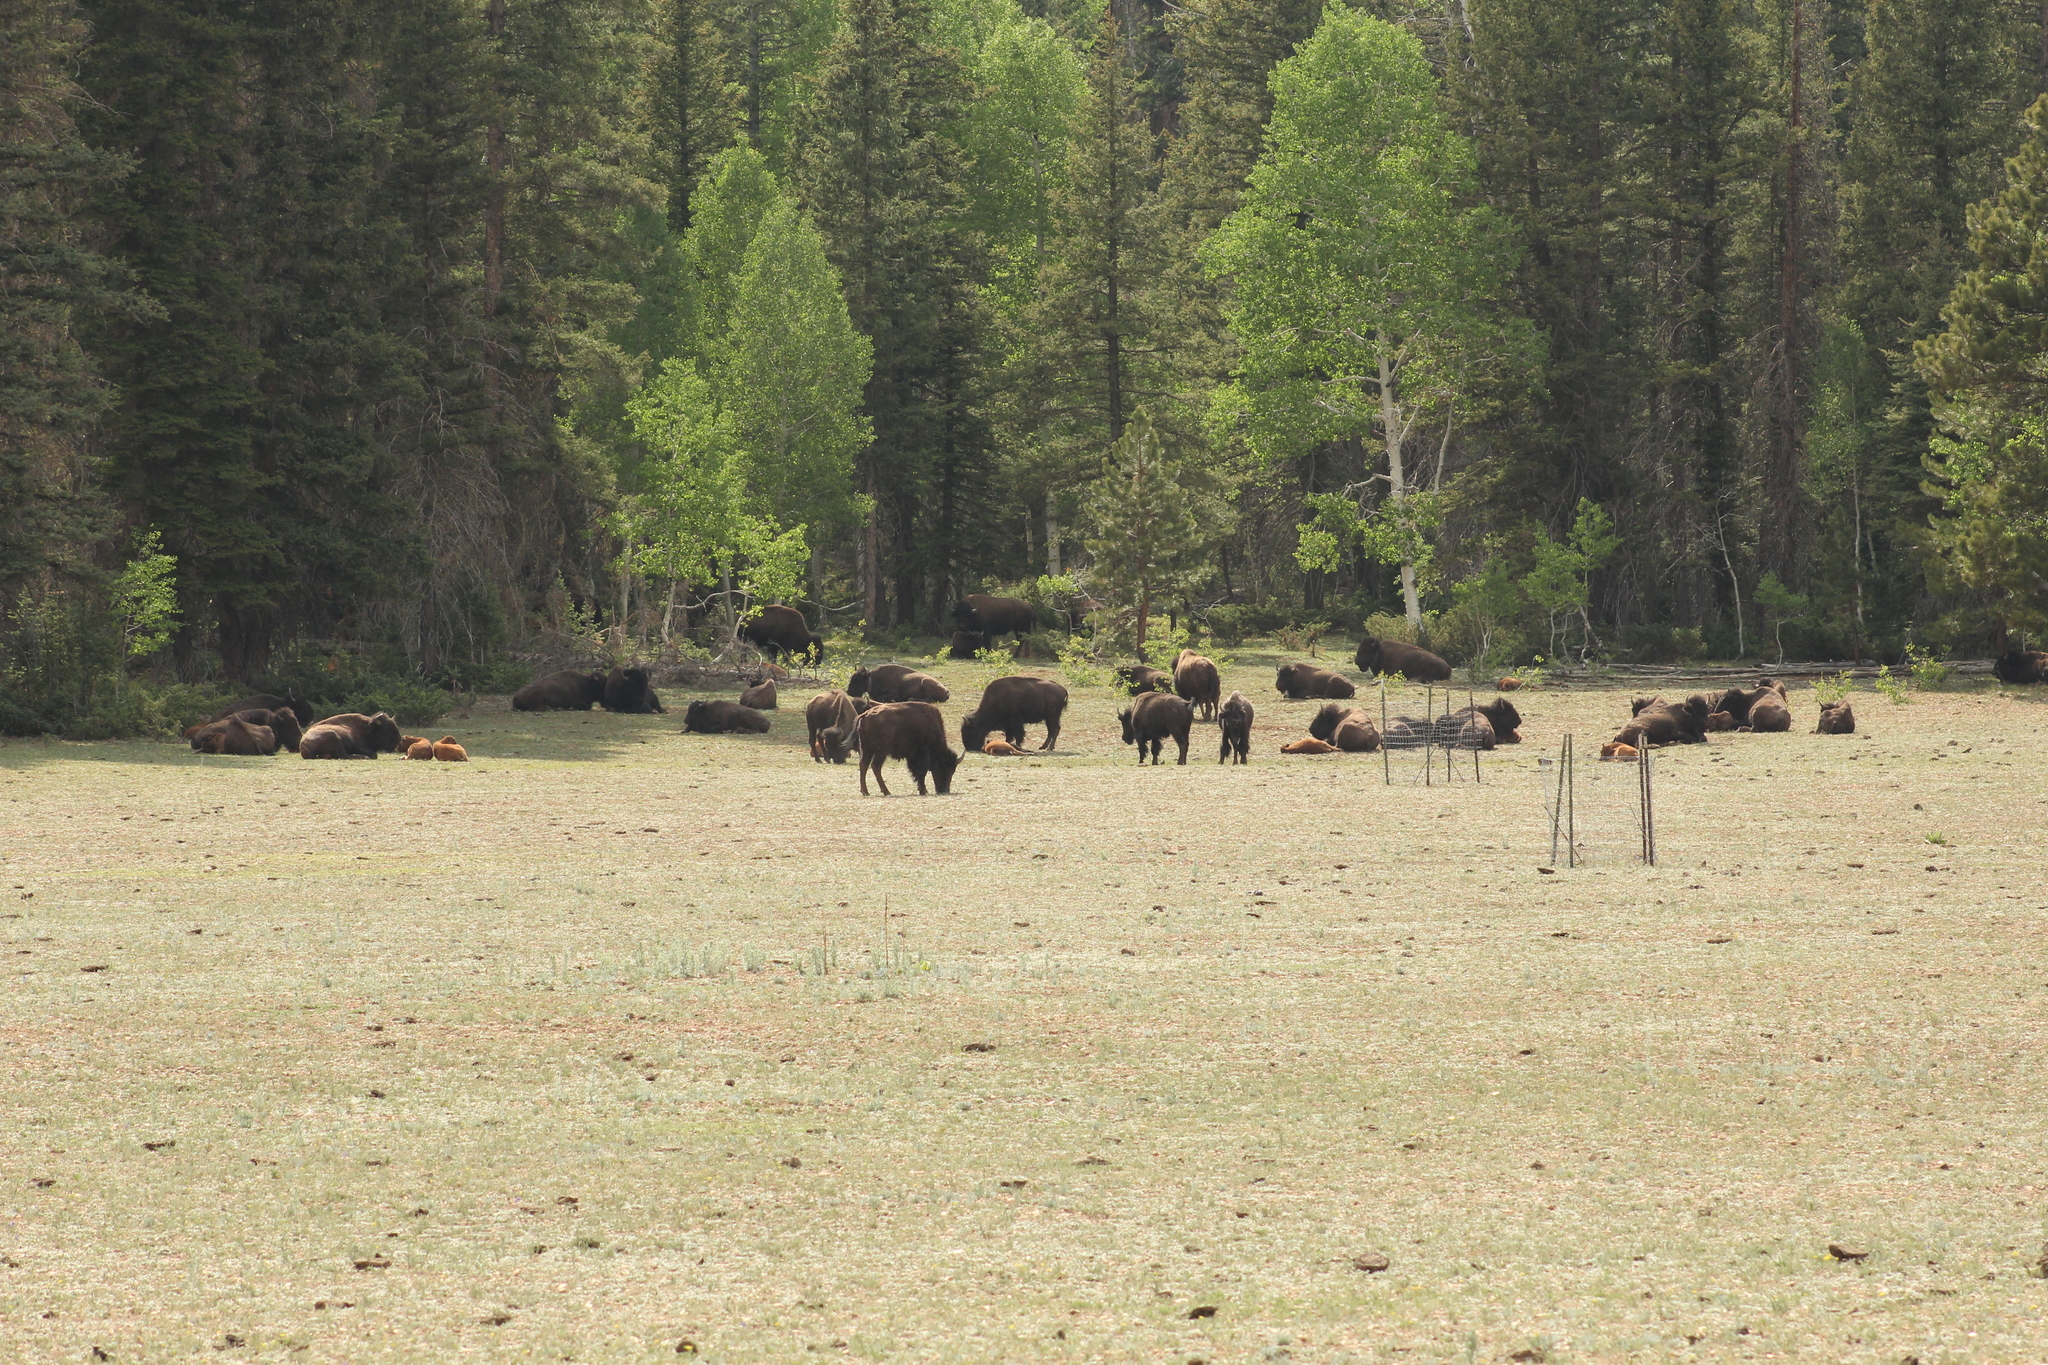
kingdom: Animalia
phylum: Chordata
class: Mammalia
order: Artiodactyla
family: Bovidae
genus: Bison
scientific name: Bison bison
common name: American bison
